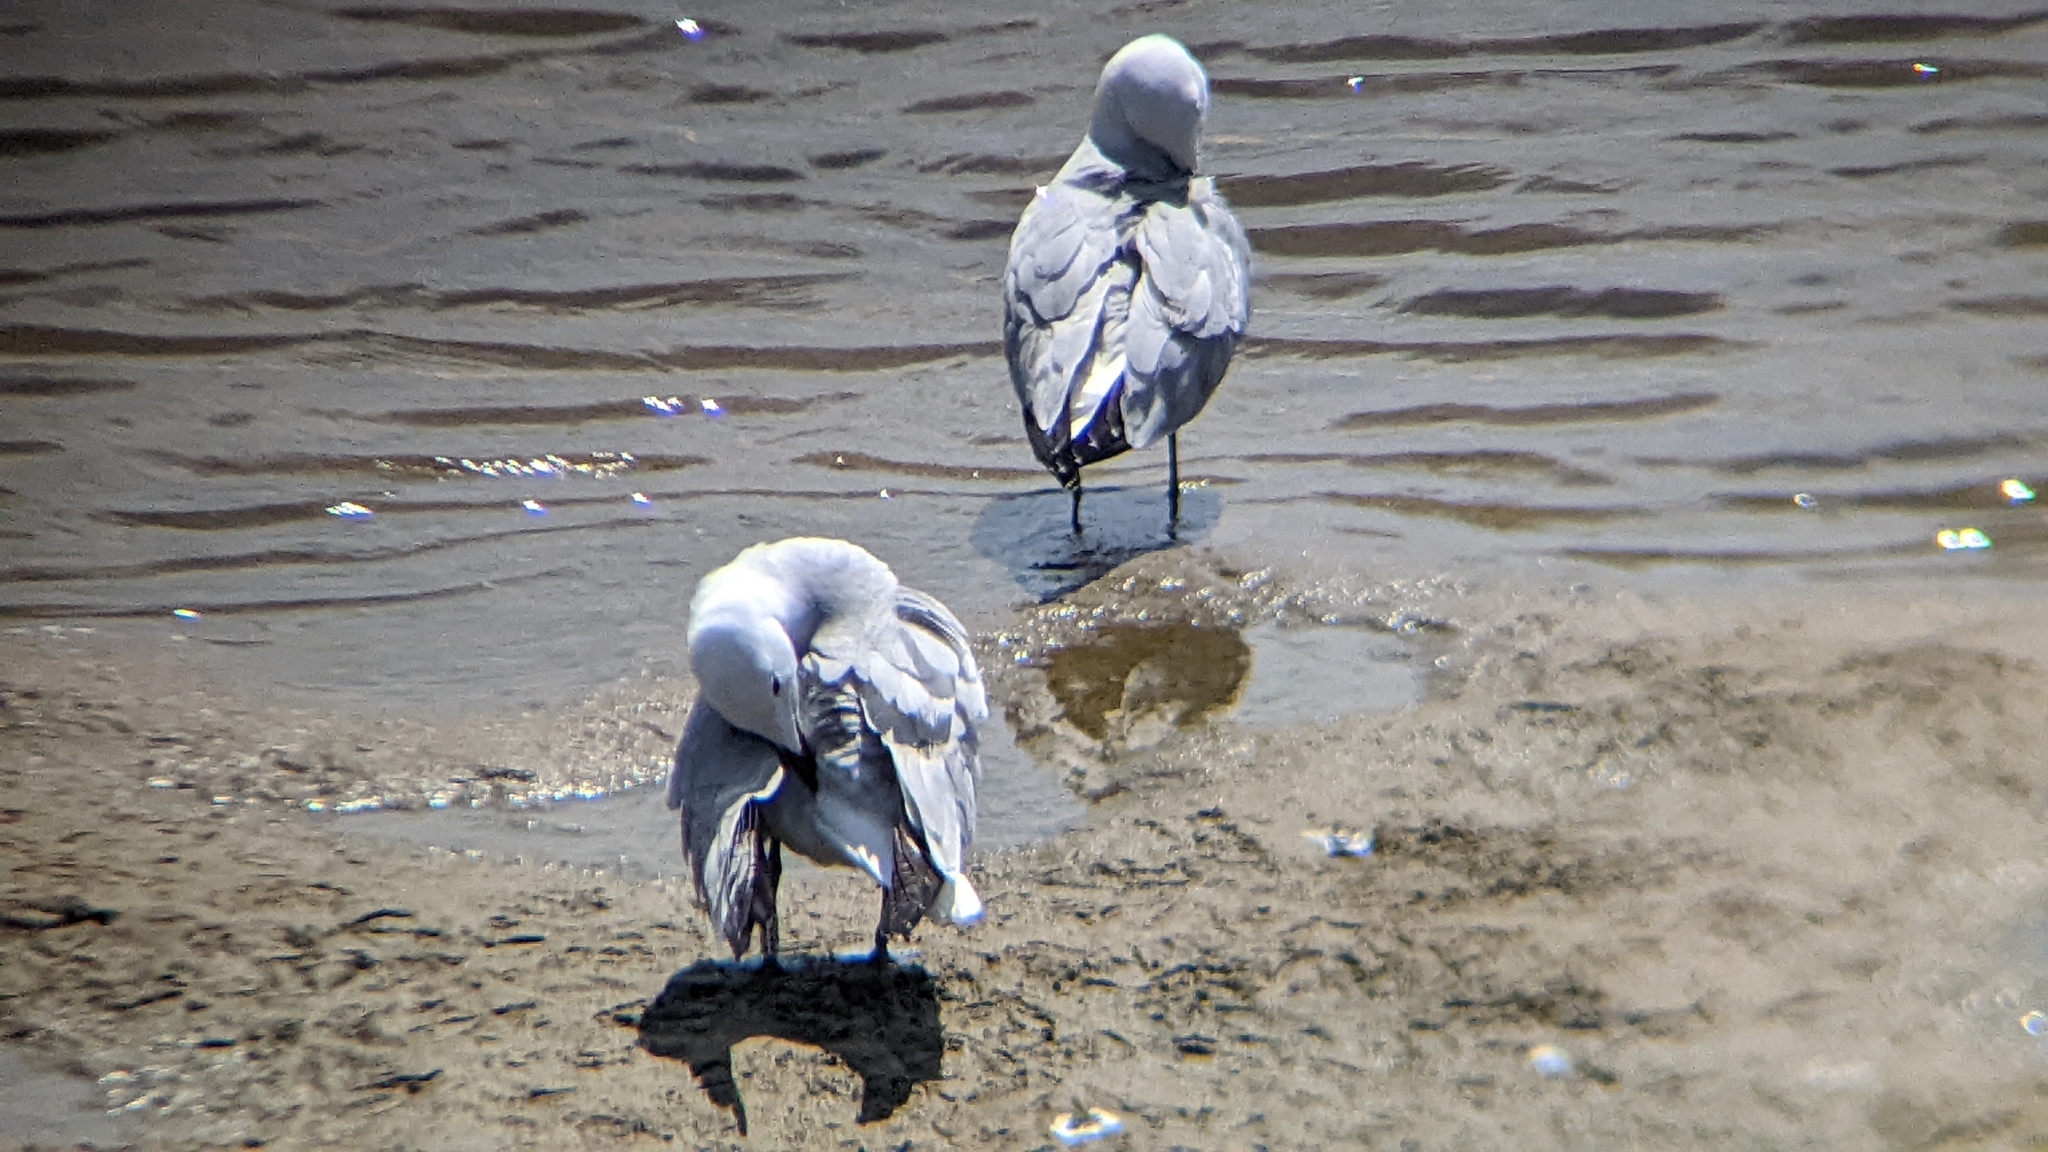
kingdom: Animalia
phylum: Chordata
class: Aves
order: Charadriiformes
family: Laridae
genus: Ichthyaetus
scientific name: Ichthyaetus audouinii
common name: Audouin's gull
